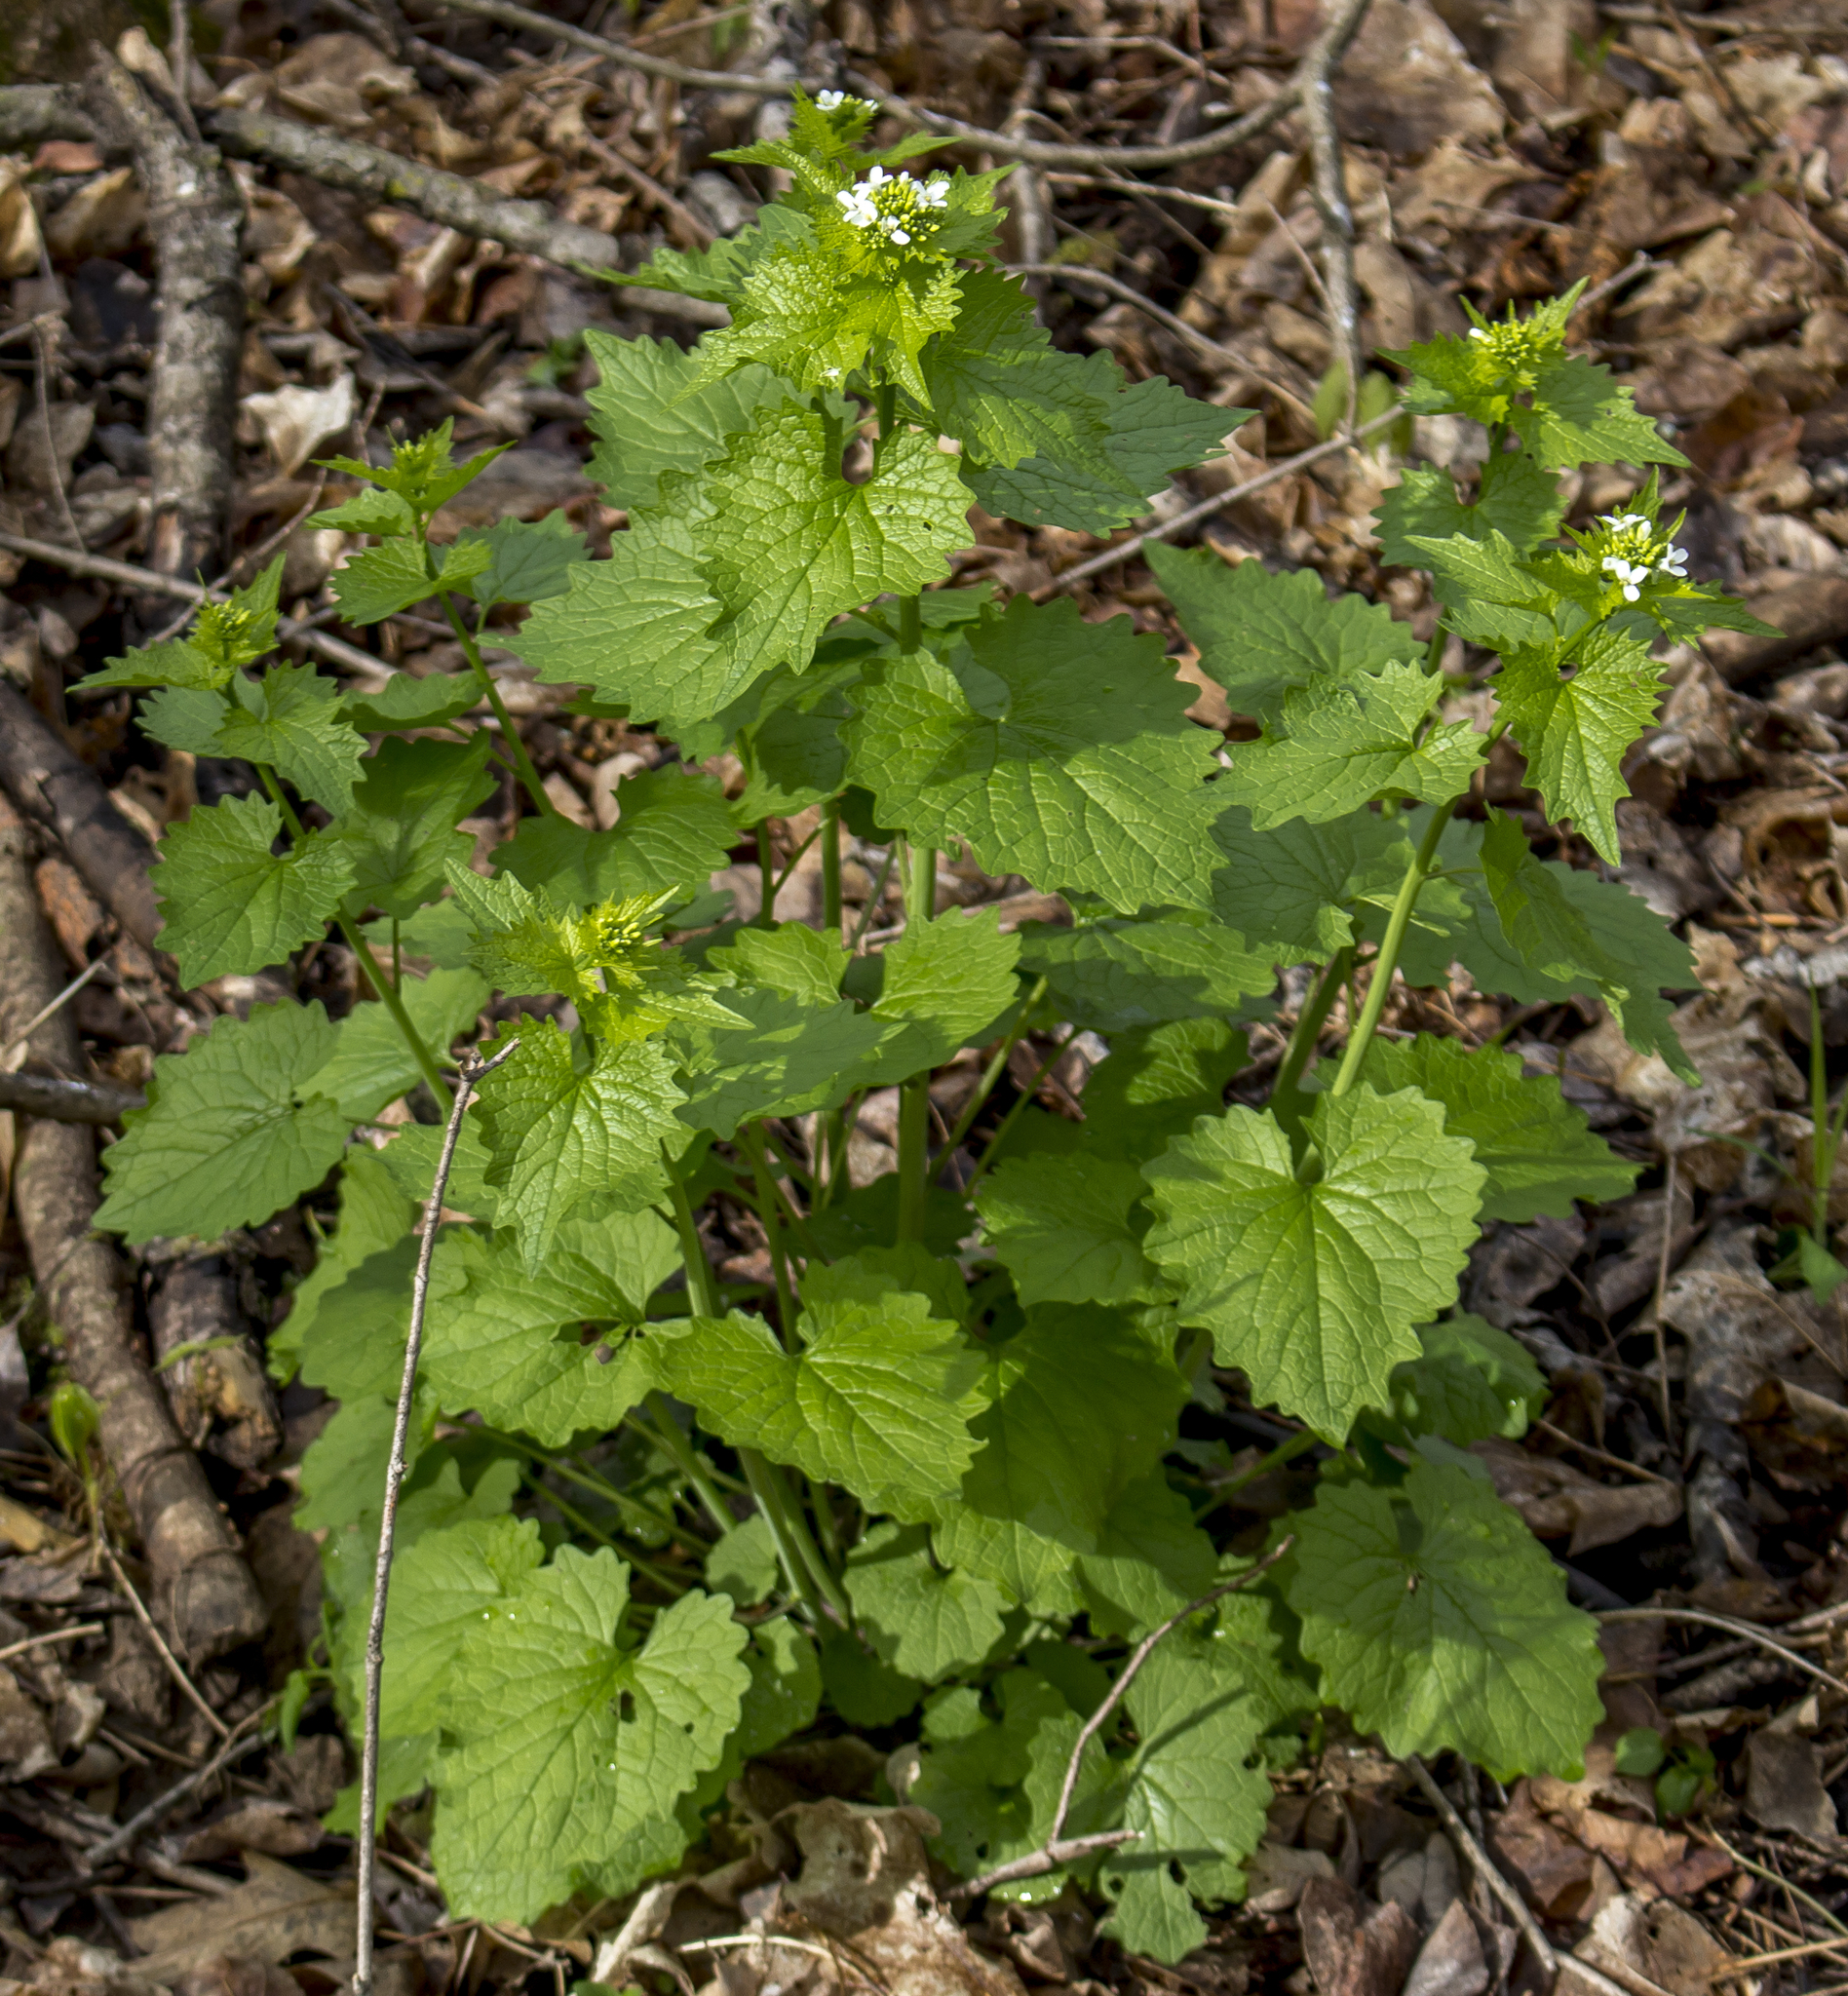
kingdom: Plantae
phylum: Tracheophyta
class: Magnoliopsida
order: Brassicales
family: Brassicaceae
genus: Alliaria
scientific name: Alliaria petiolata
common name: Garlic mustard
